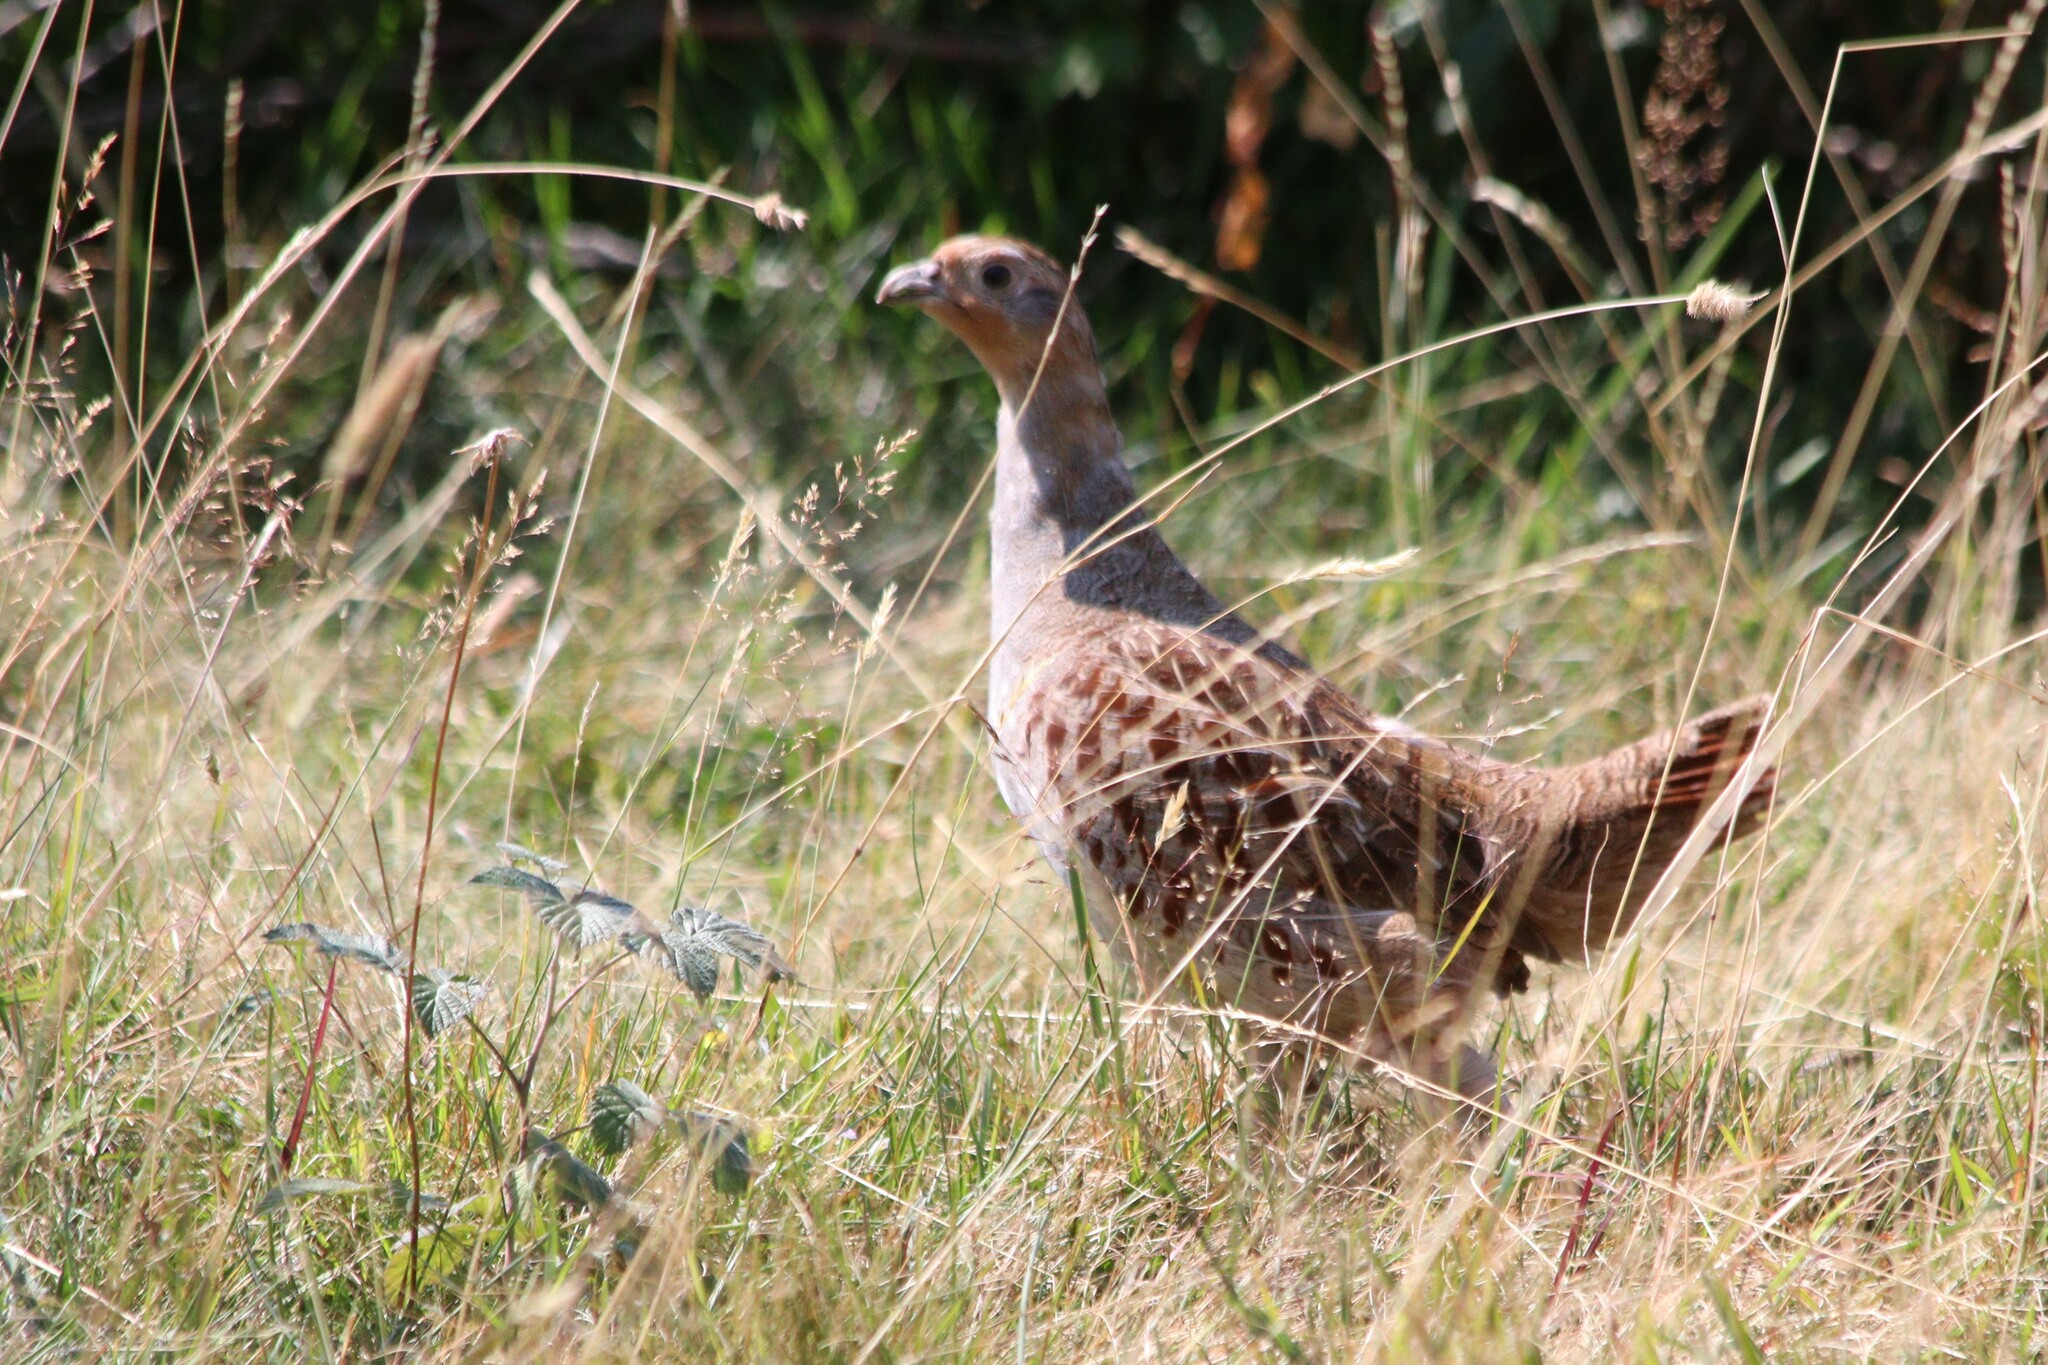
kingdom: Animalia
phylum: Chordata
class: Aves
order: Galliformes
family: Phasianidae
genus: Perdix
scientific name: Perdix perdix
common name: Grey partridge
